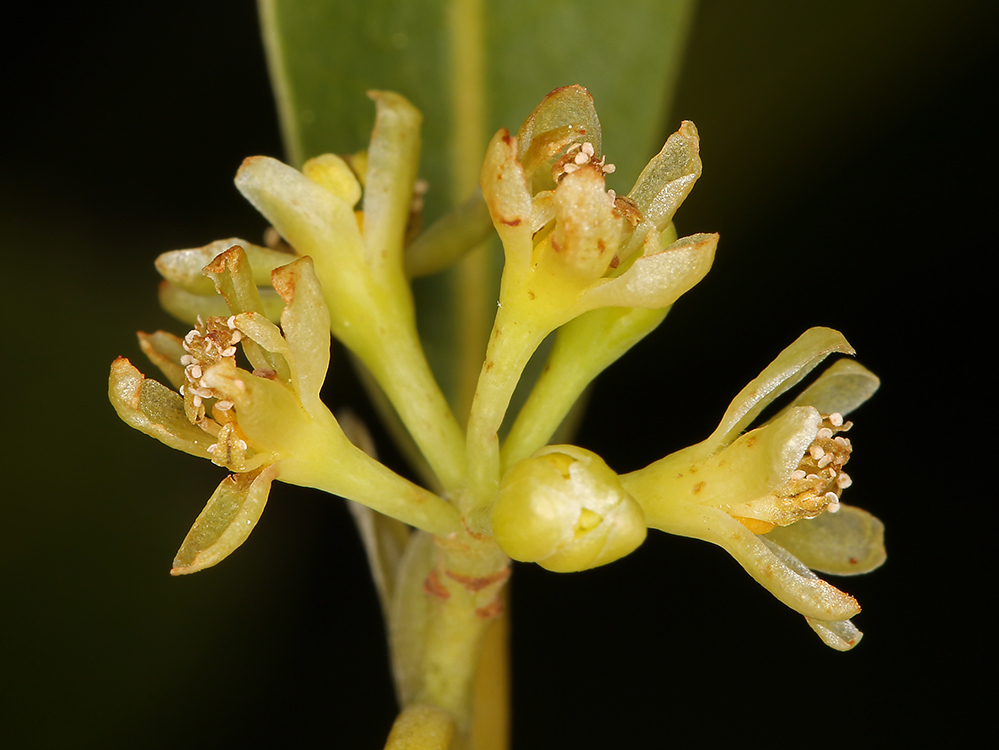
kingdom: Plantae
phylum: Tracheophyta
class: Magnoliopsida
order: Laurales
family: Lauraceae
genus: Umbellularia
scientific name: Umbellularia californica
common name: California bay
